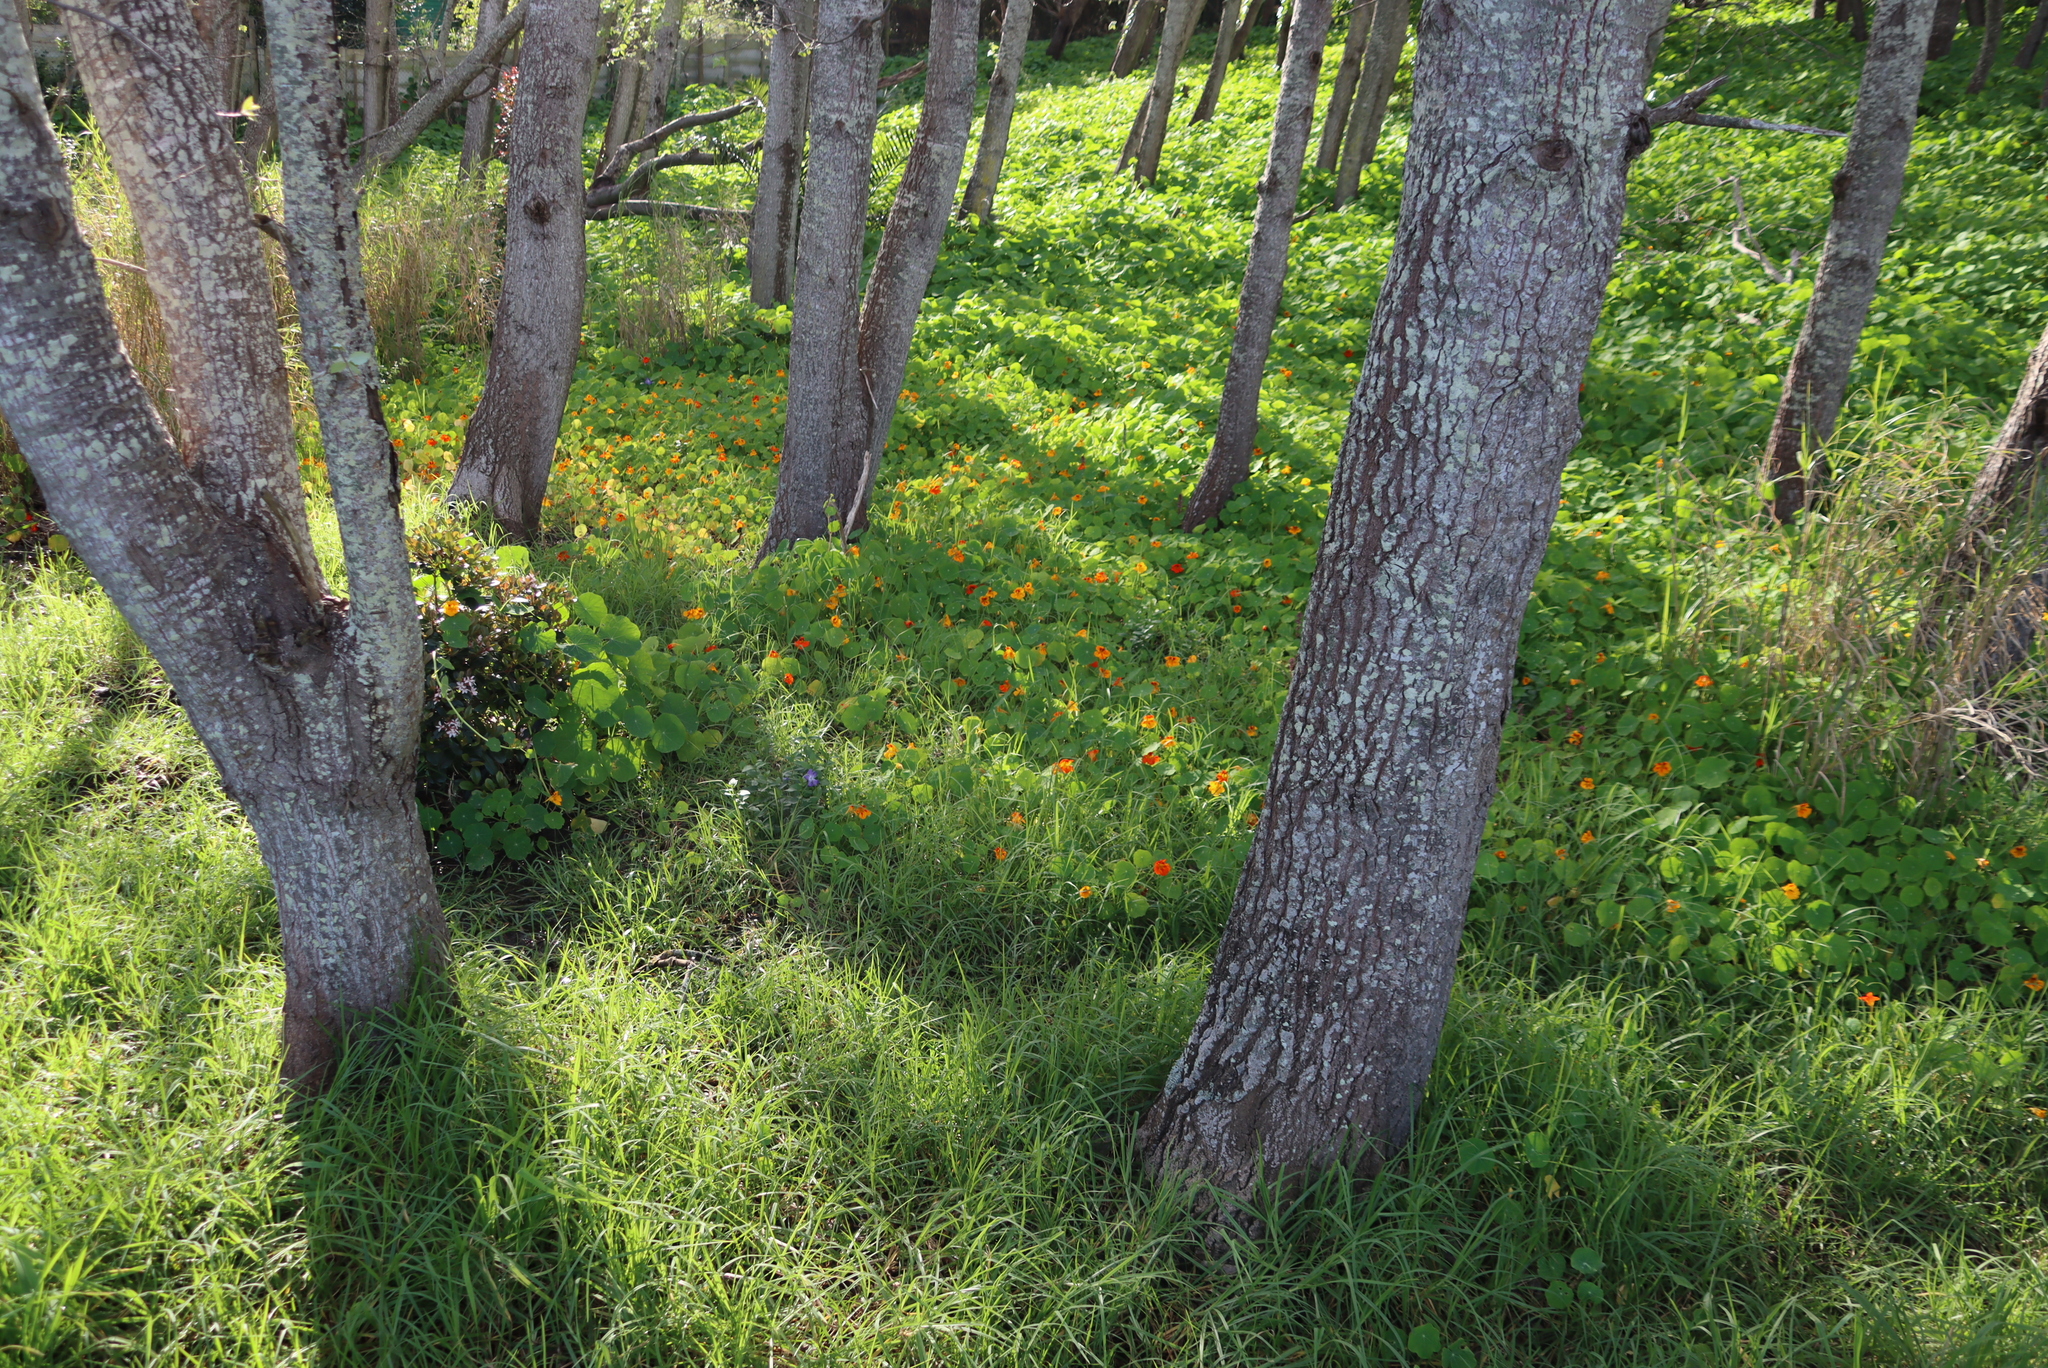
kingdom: Plantae
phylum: Tracheophyta
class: Magnoliopsida
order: Brassicales
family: Tropaeolaceae
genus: Tropaeolum
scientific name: Tropaeolum majus
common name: Nasturtium
